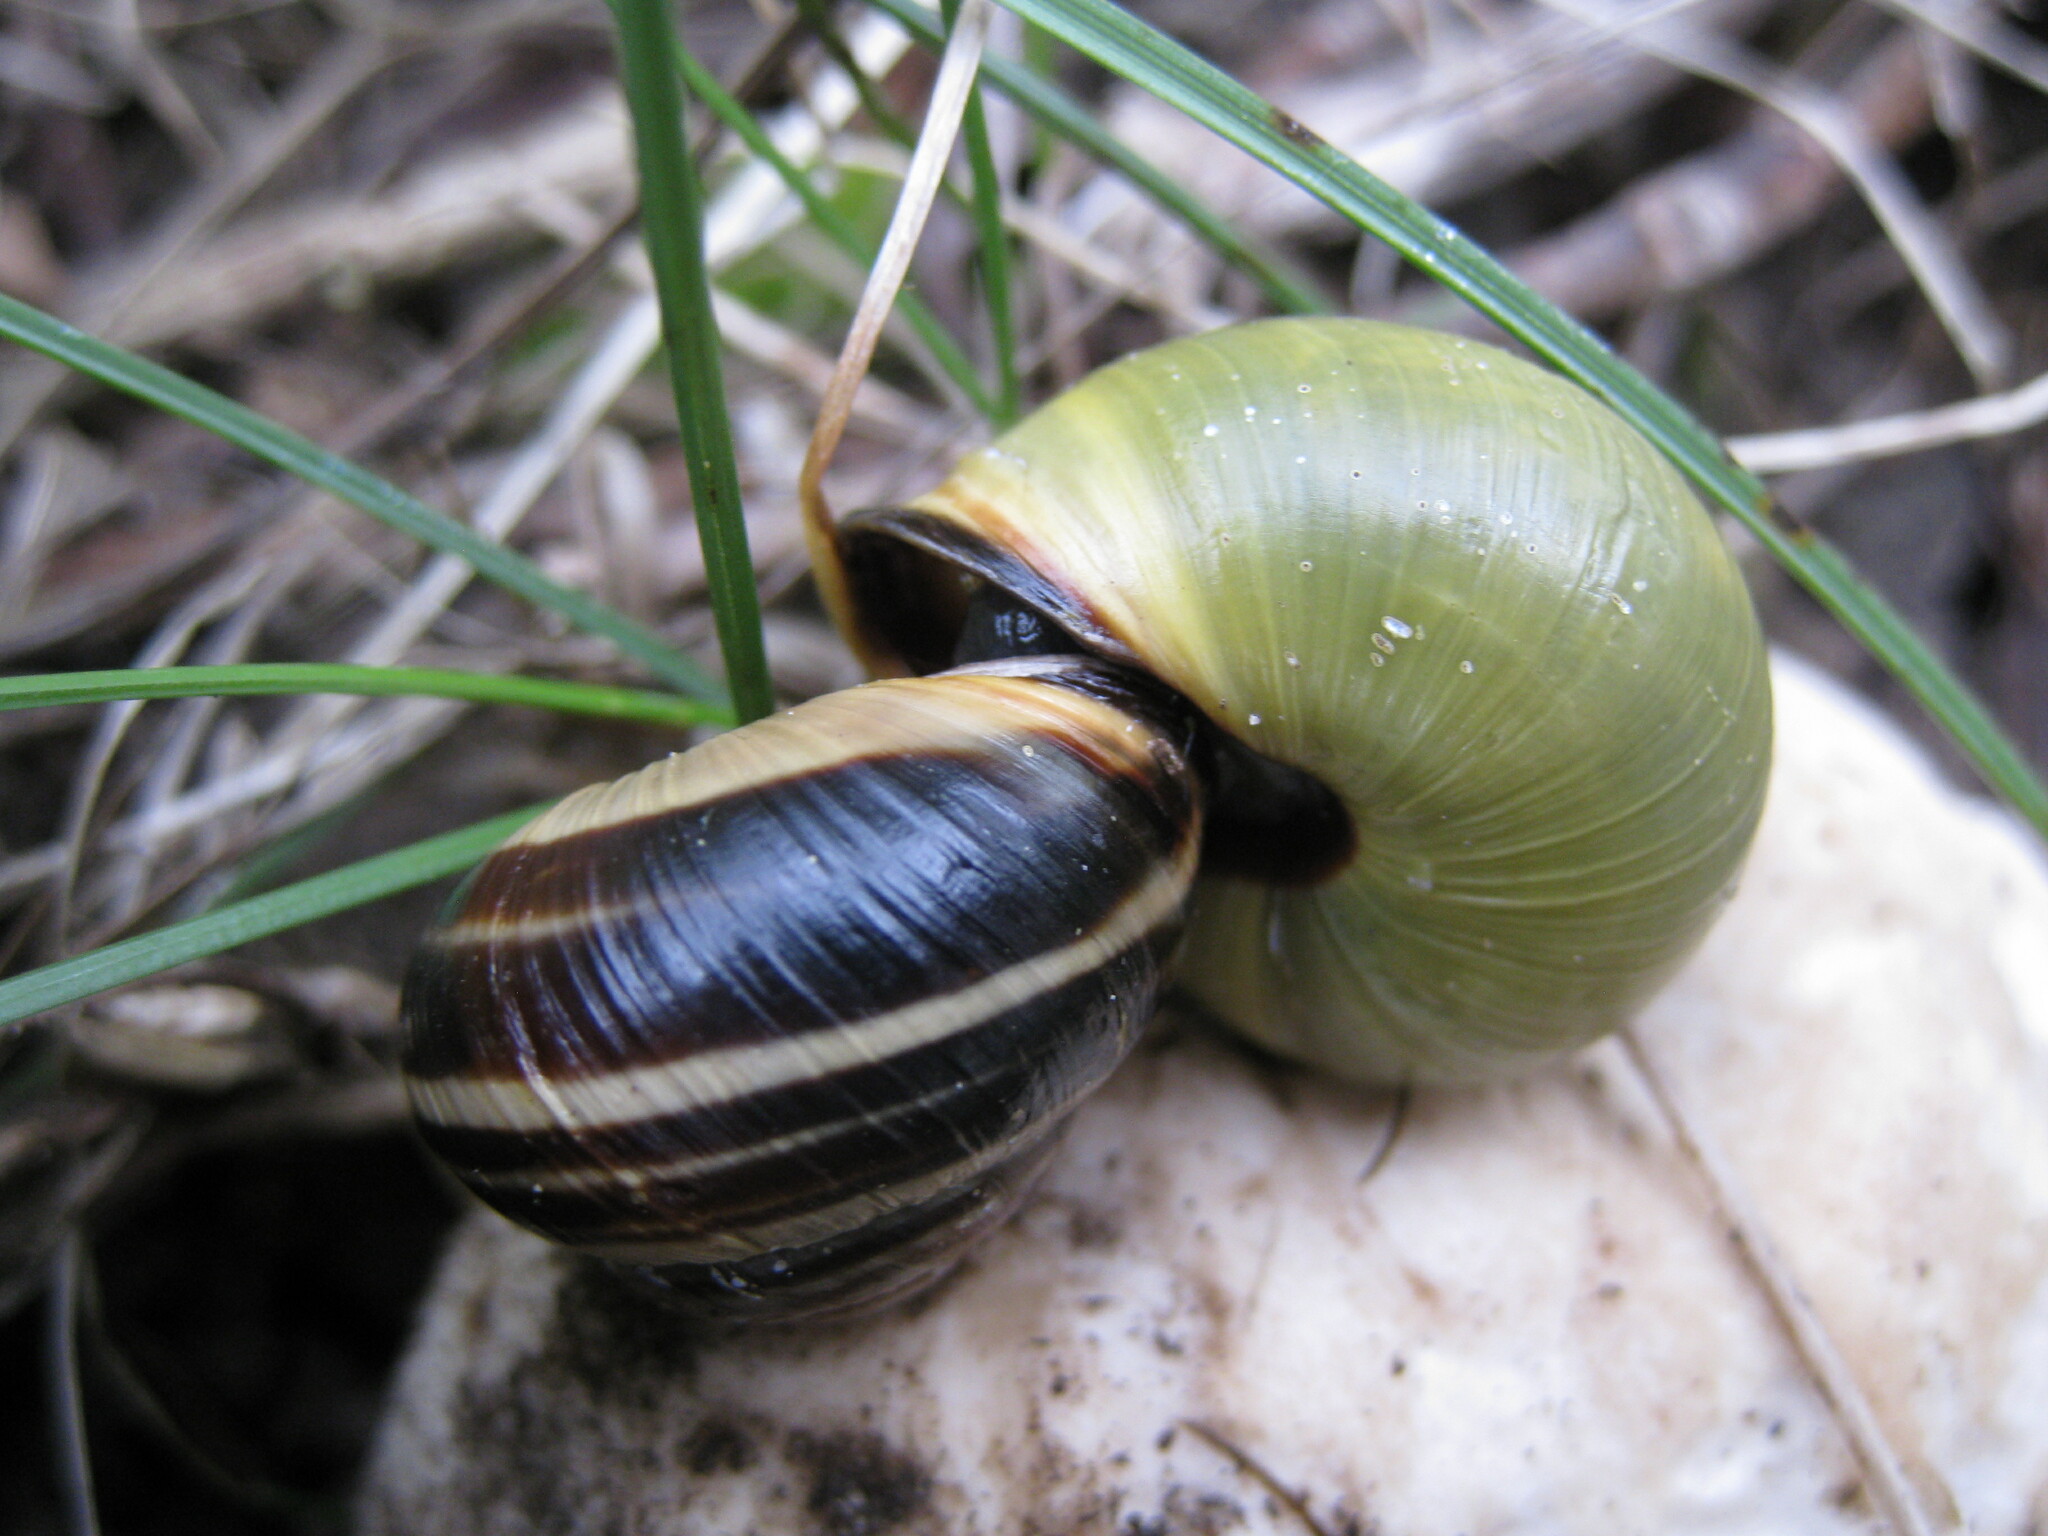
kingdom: Animalia
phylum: Mollusca
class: Gastropoda
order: Stylommatophora
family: Helicidae
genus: Cepaea
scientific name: Cepaea nemoralis
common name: Grovesnail
